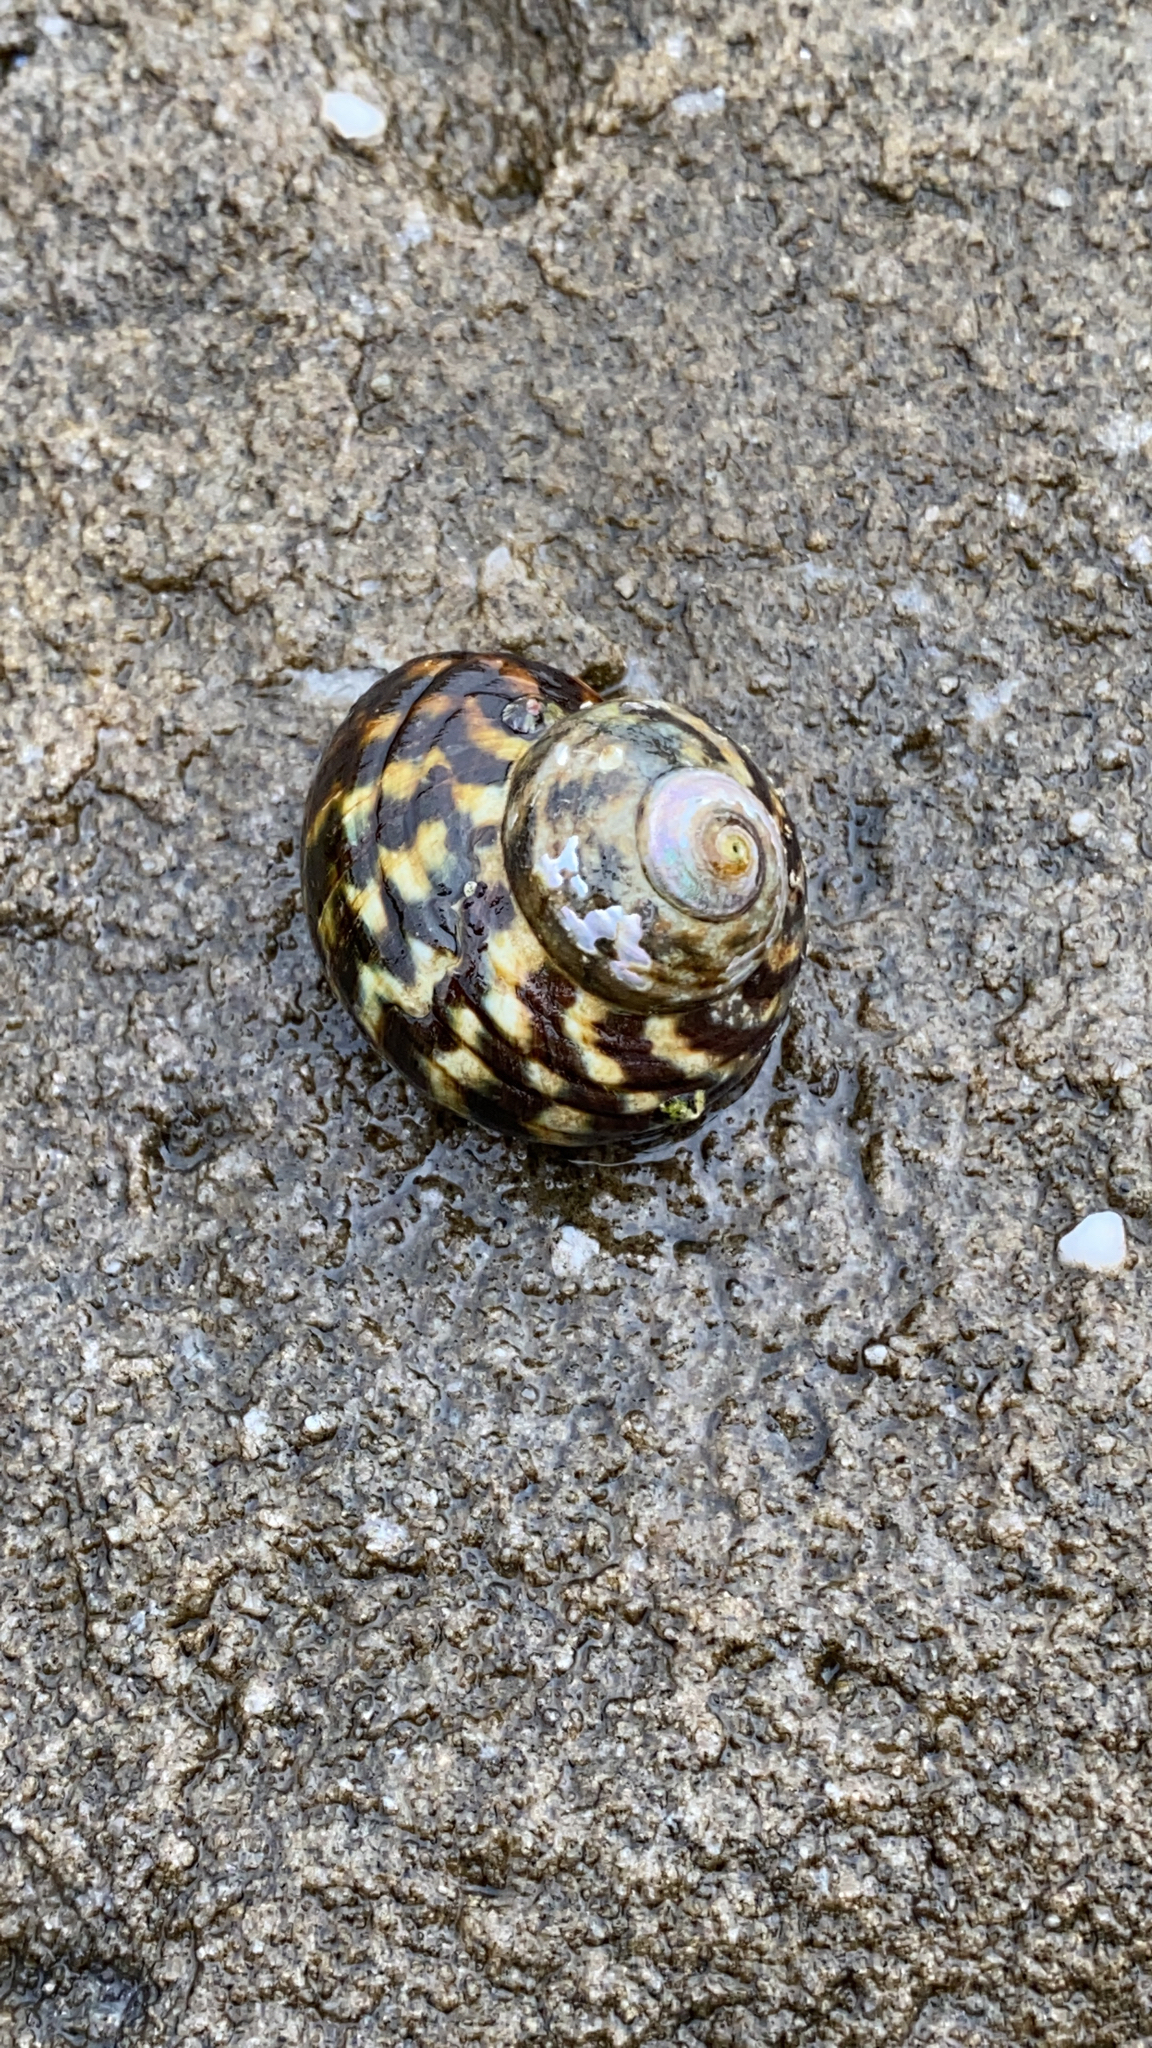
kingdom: Animalia
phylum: Mollusca
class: Gastropoda
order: Trochida
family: Turbinidae
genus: Lunella
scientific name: Lunella undulata
